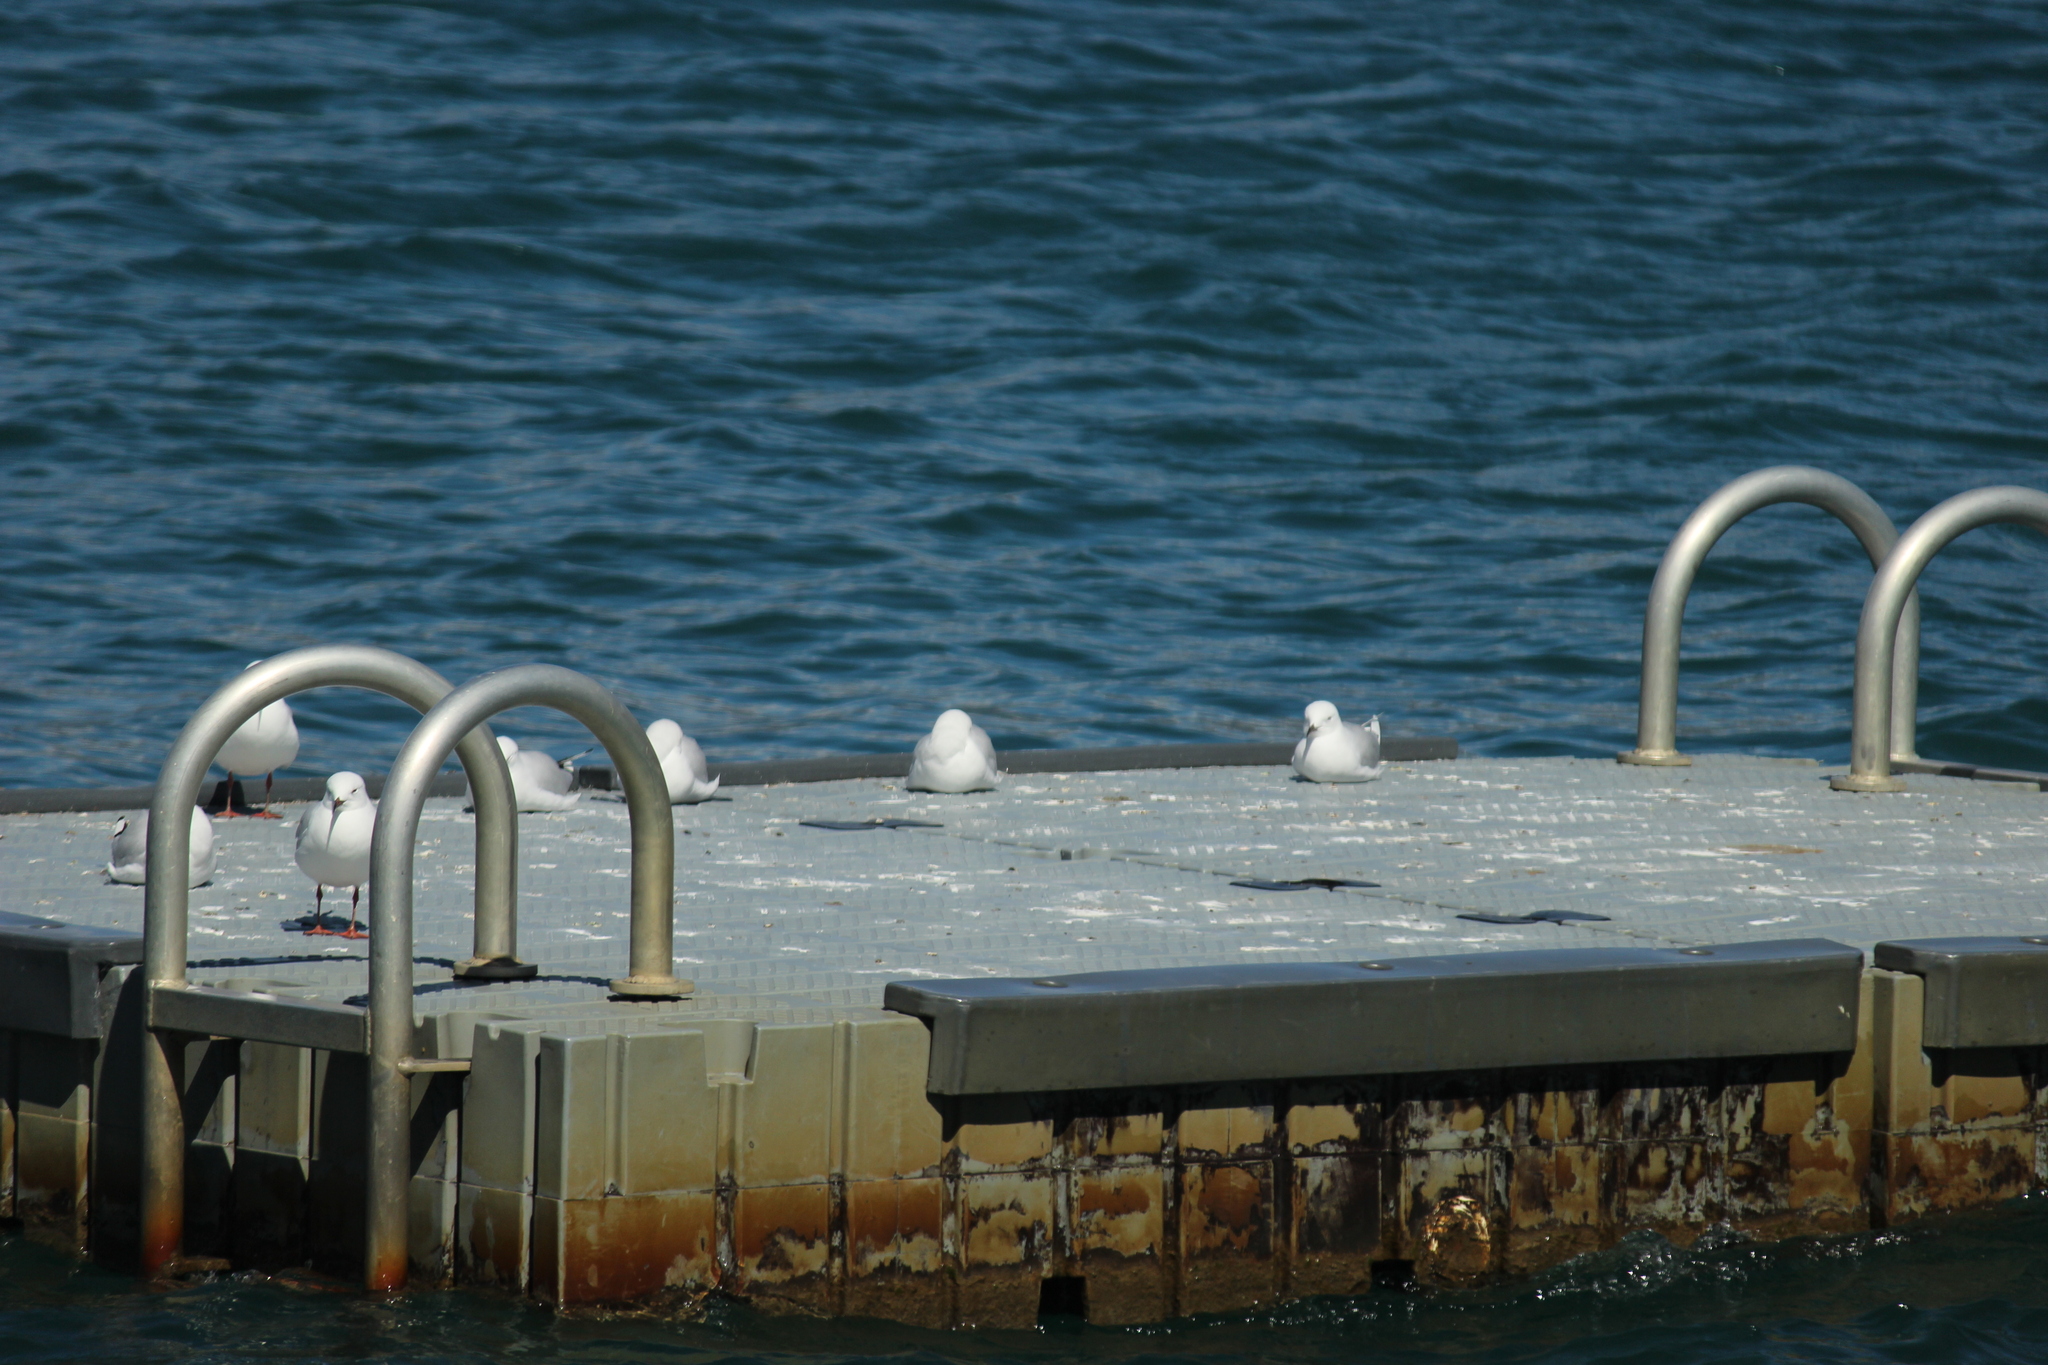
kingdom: Animalia
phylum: Chordata
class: Aves
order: Charadriiformes
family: Laridae
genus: Chroicocephalus
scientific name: Chroicocephalus bulleri
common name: Black-billed gull
